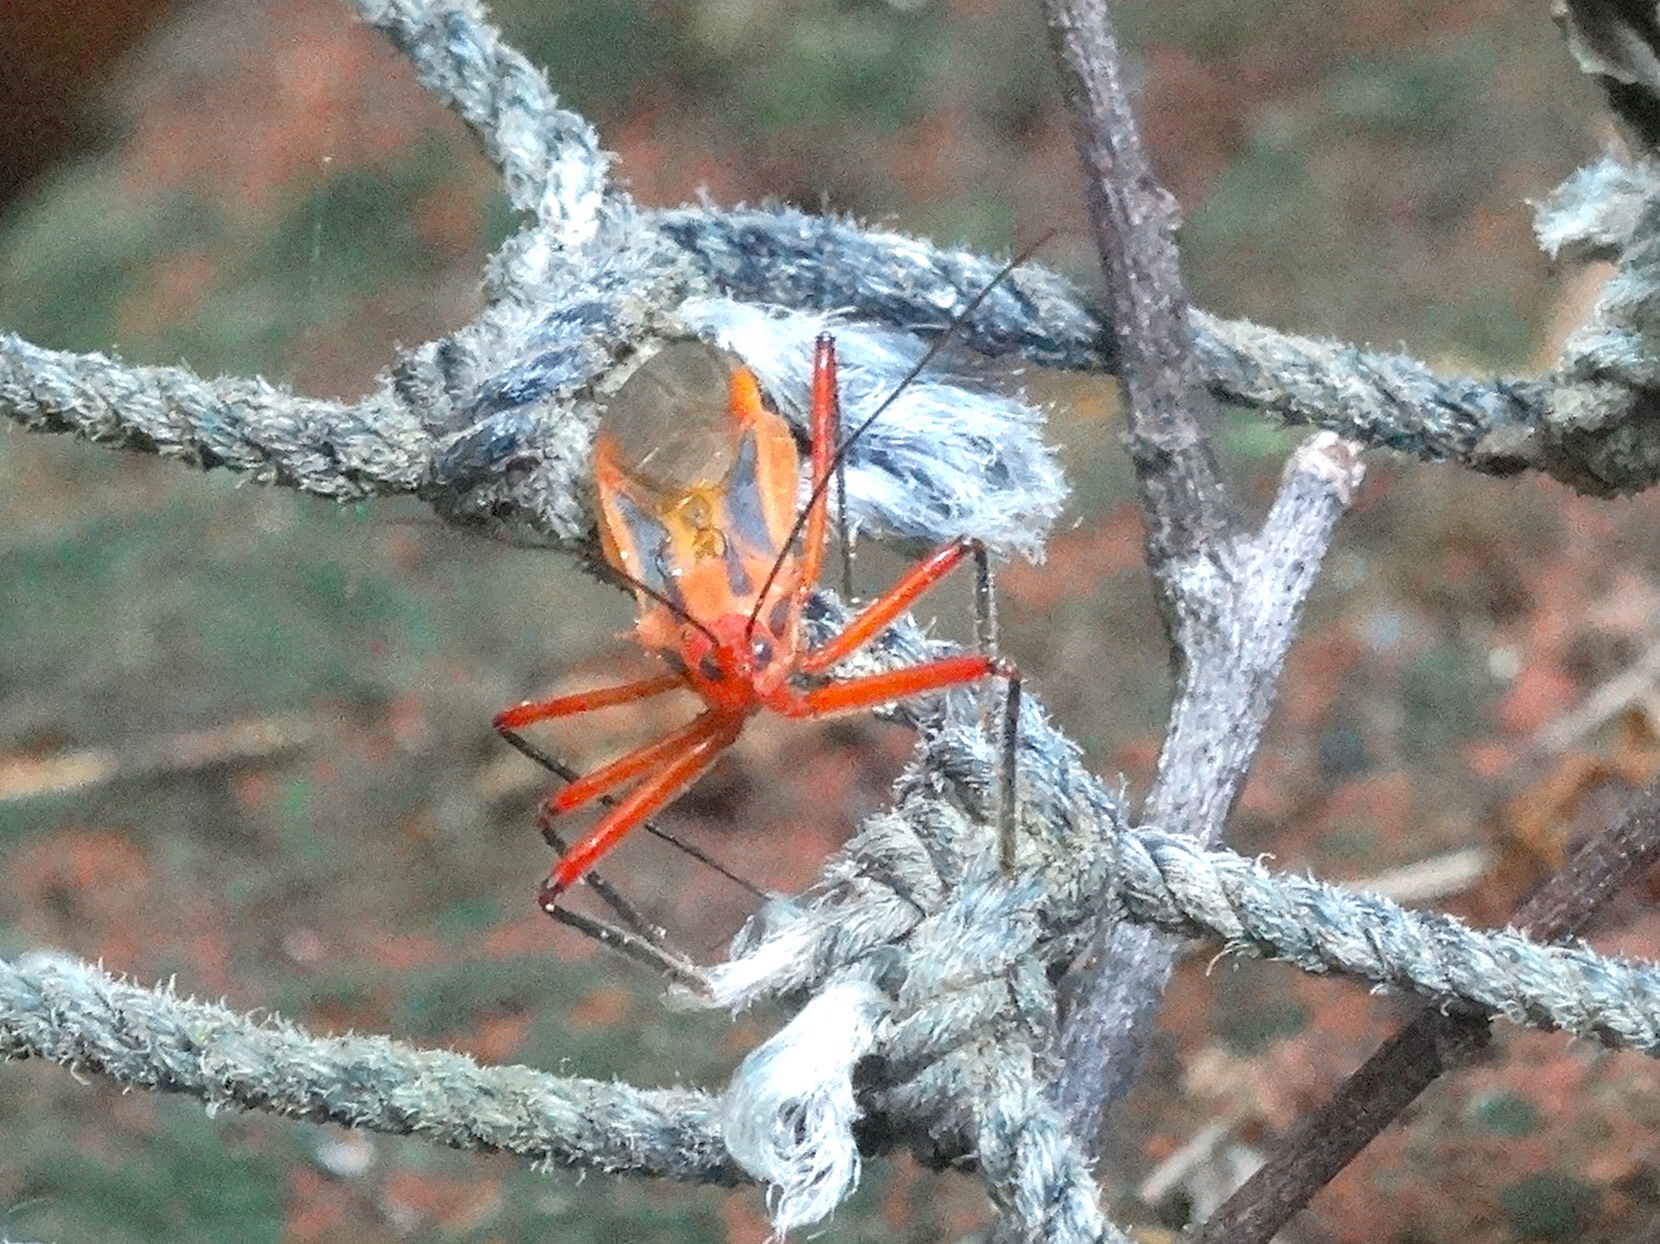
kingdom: Animalia
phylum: Arthropoda
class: Insecta
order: Hemiptera
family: Reduviidae
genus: Repipta
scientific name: Repipta taurus
